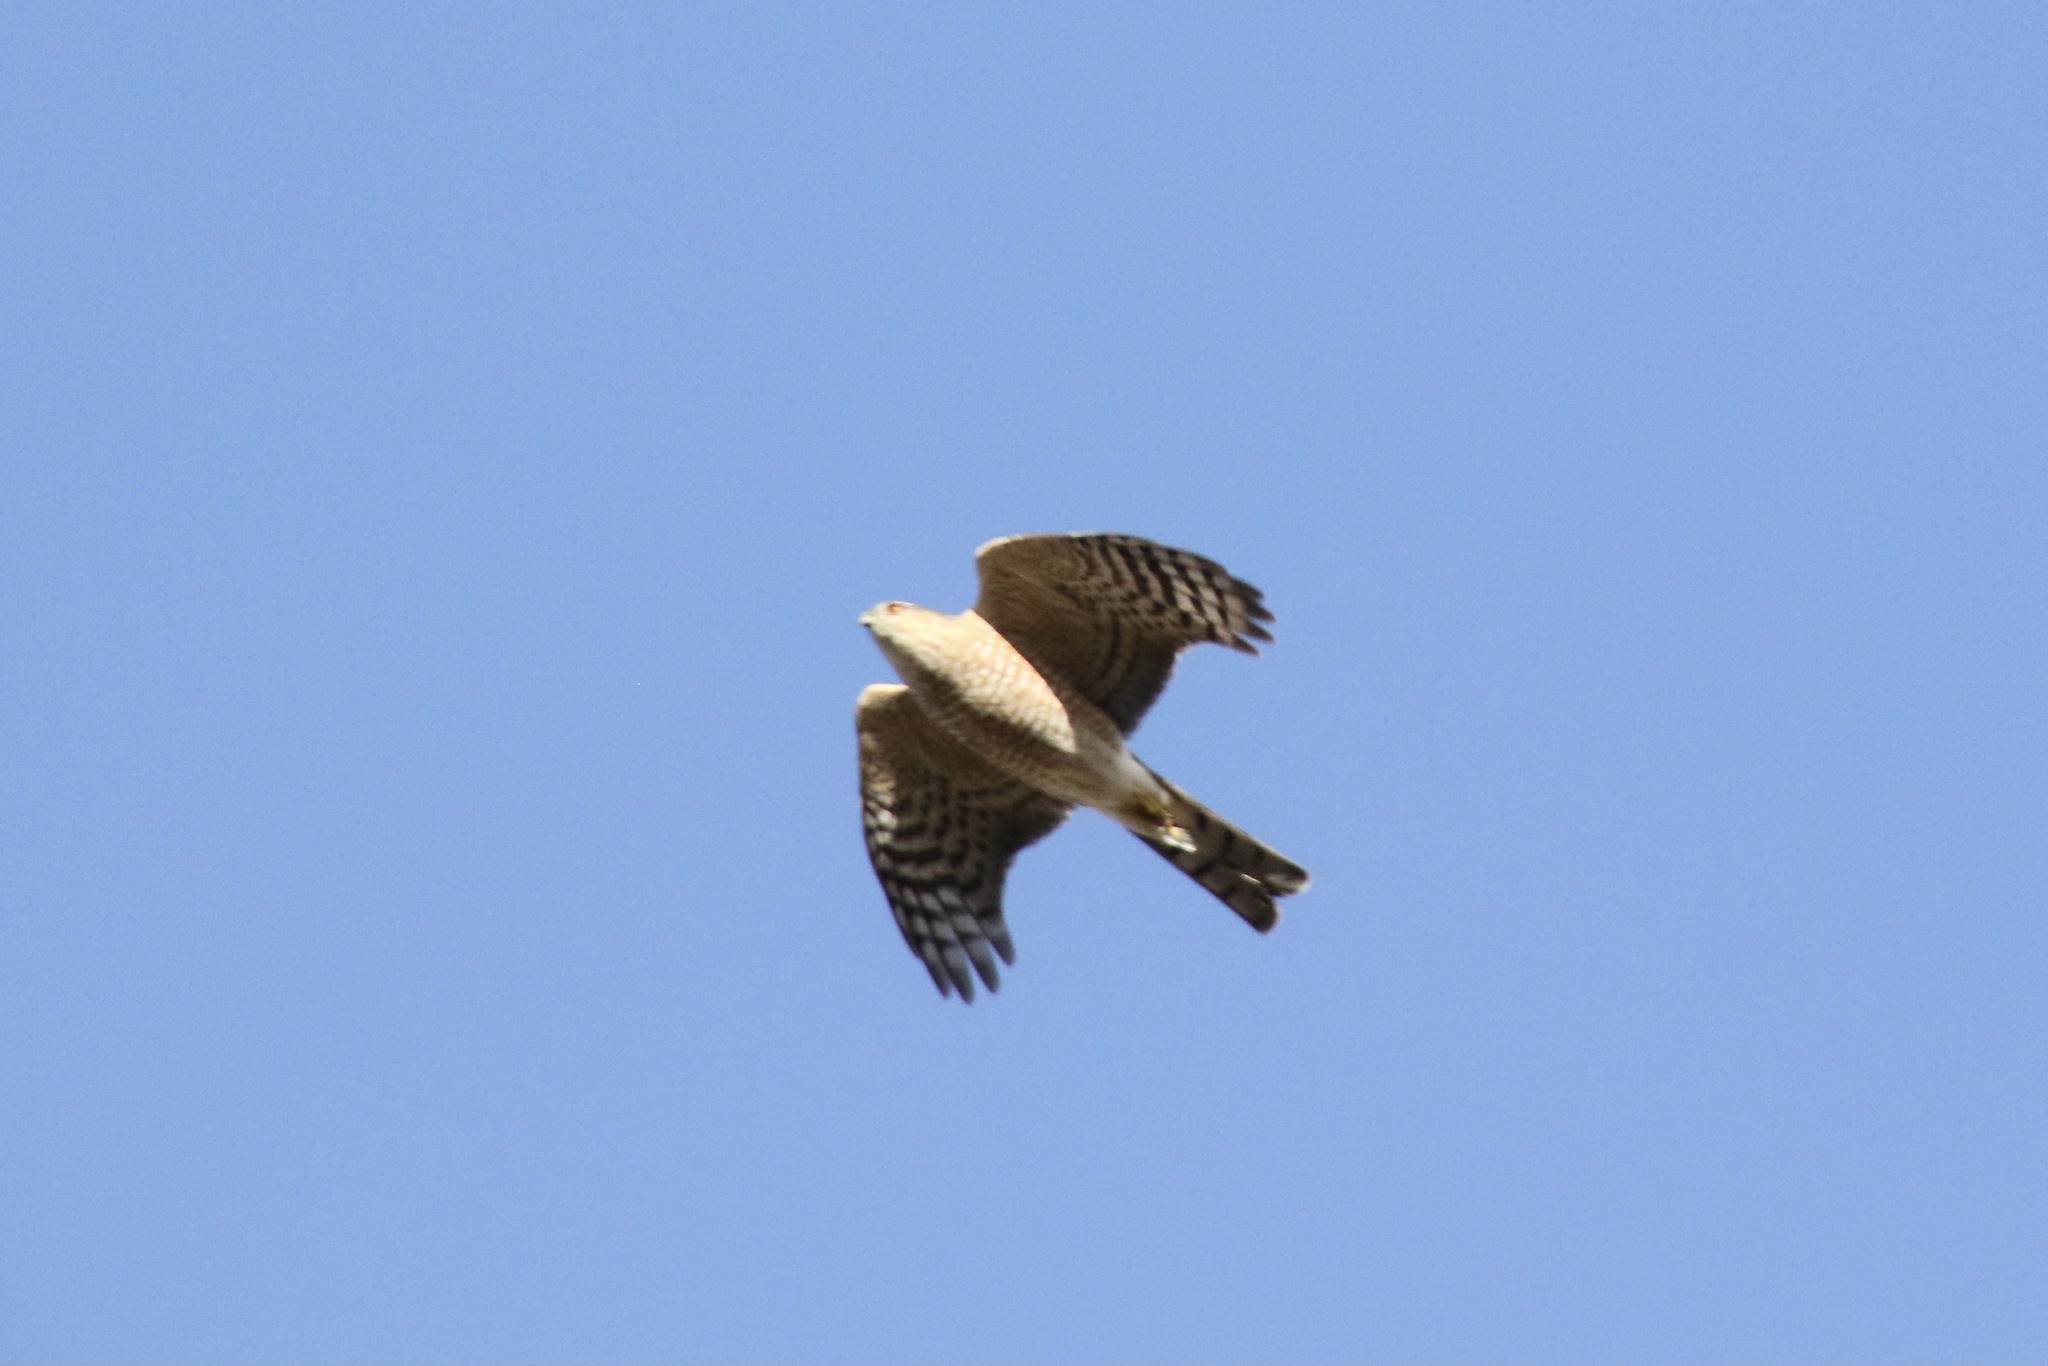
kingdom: Animalia
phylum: Chordata
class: Aves
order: Accipitriformes
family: Accipitridae
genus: Accipiter
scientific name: Accipiter striatus
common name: Sharp-shinned hawk
